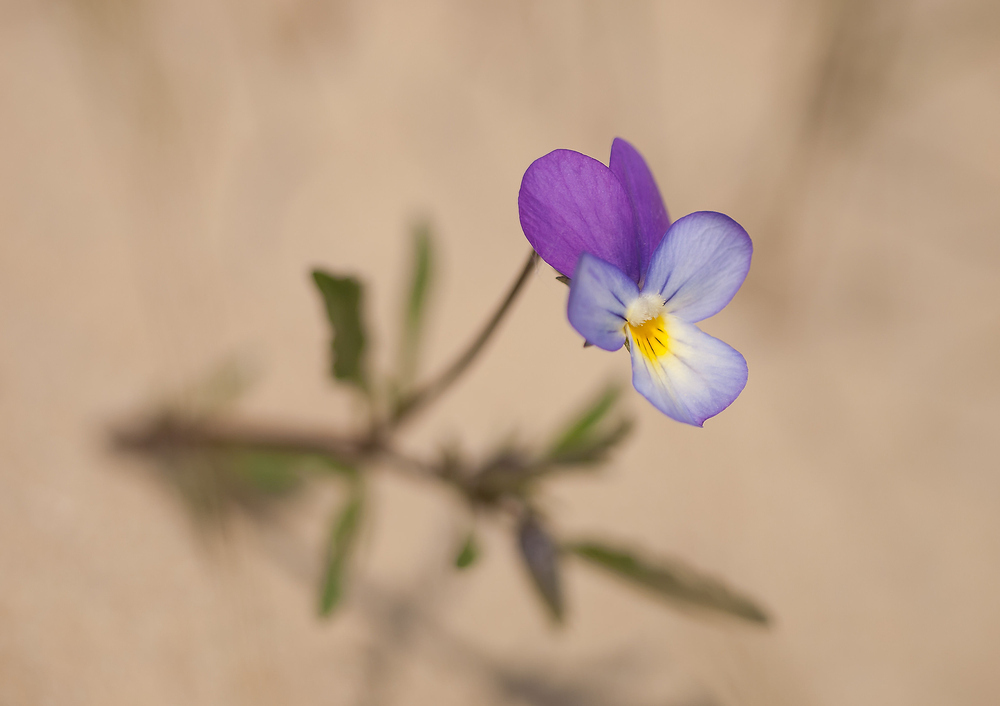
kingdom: Plantae
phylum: Tracheophyta
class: Magnoliopsida
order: Malpighiales
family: Violaceae
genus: Viola
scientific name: Viola tricolor
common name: Pansy
